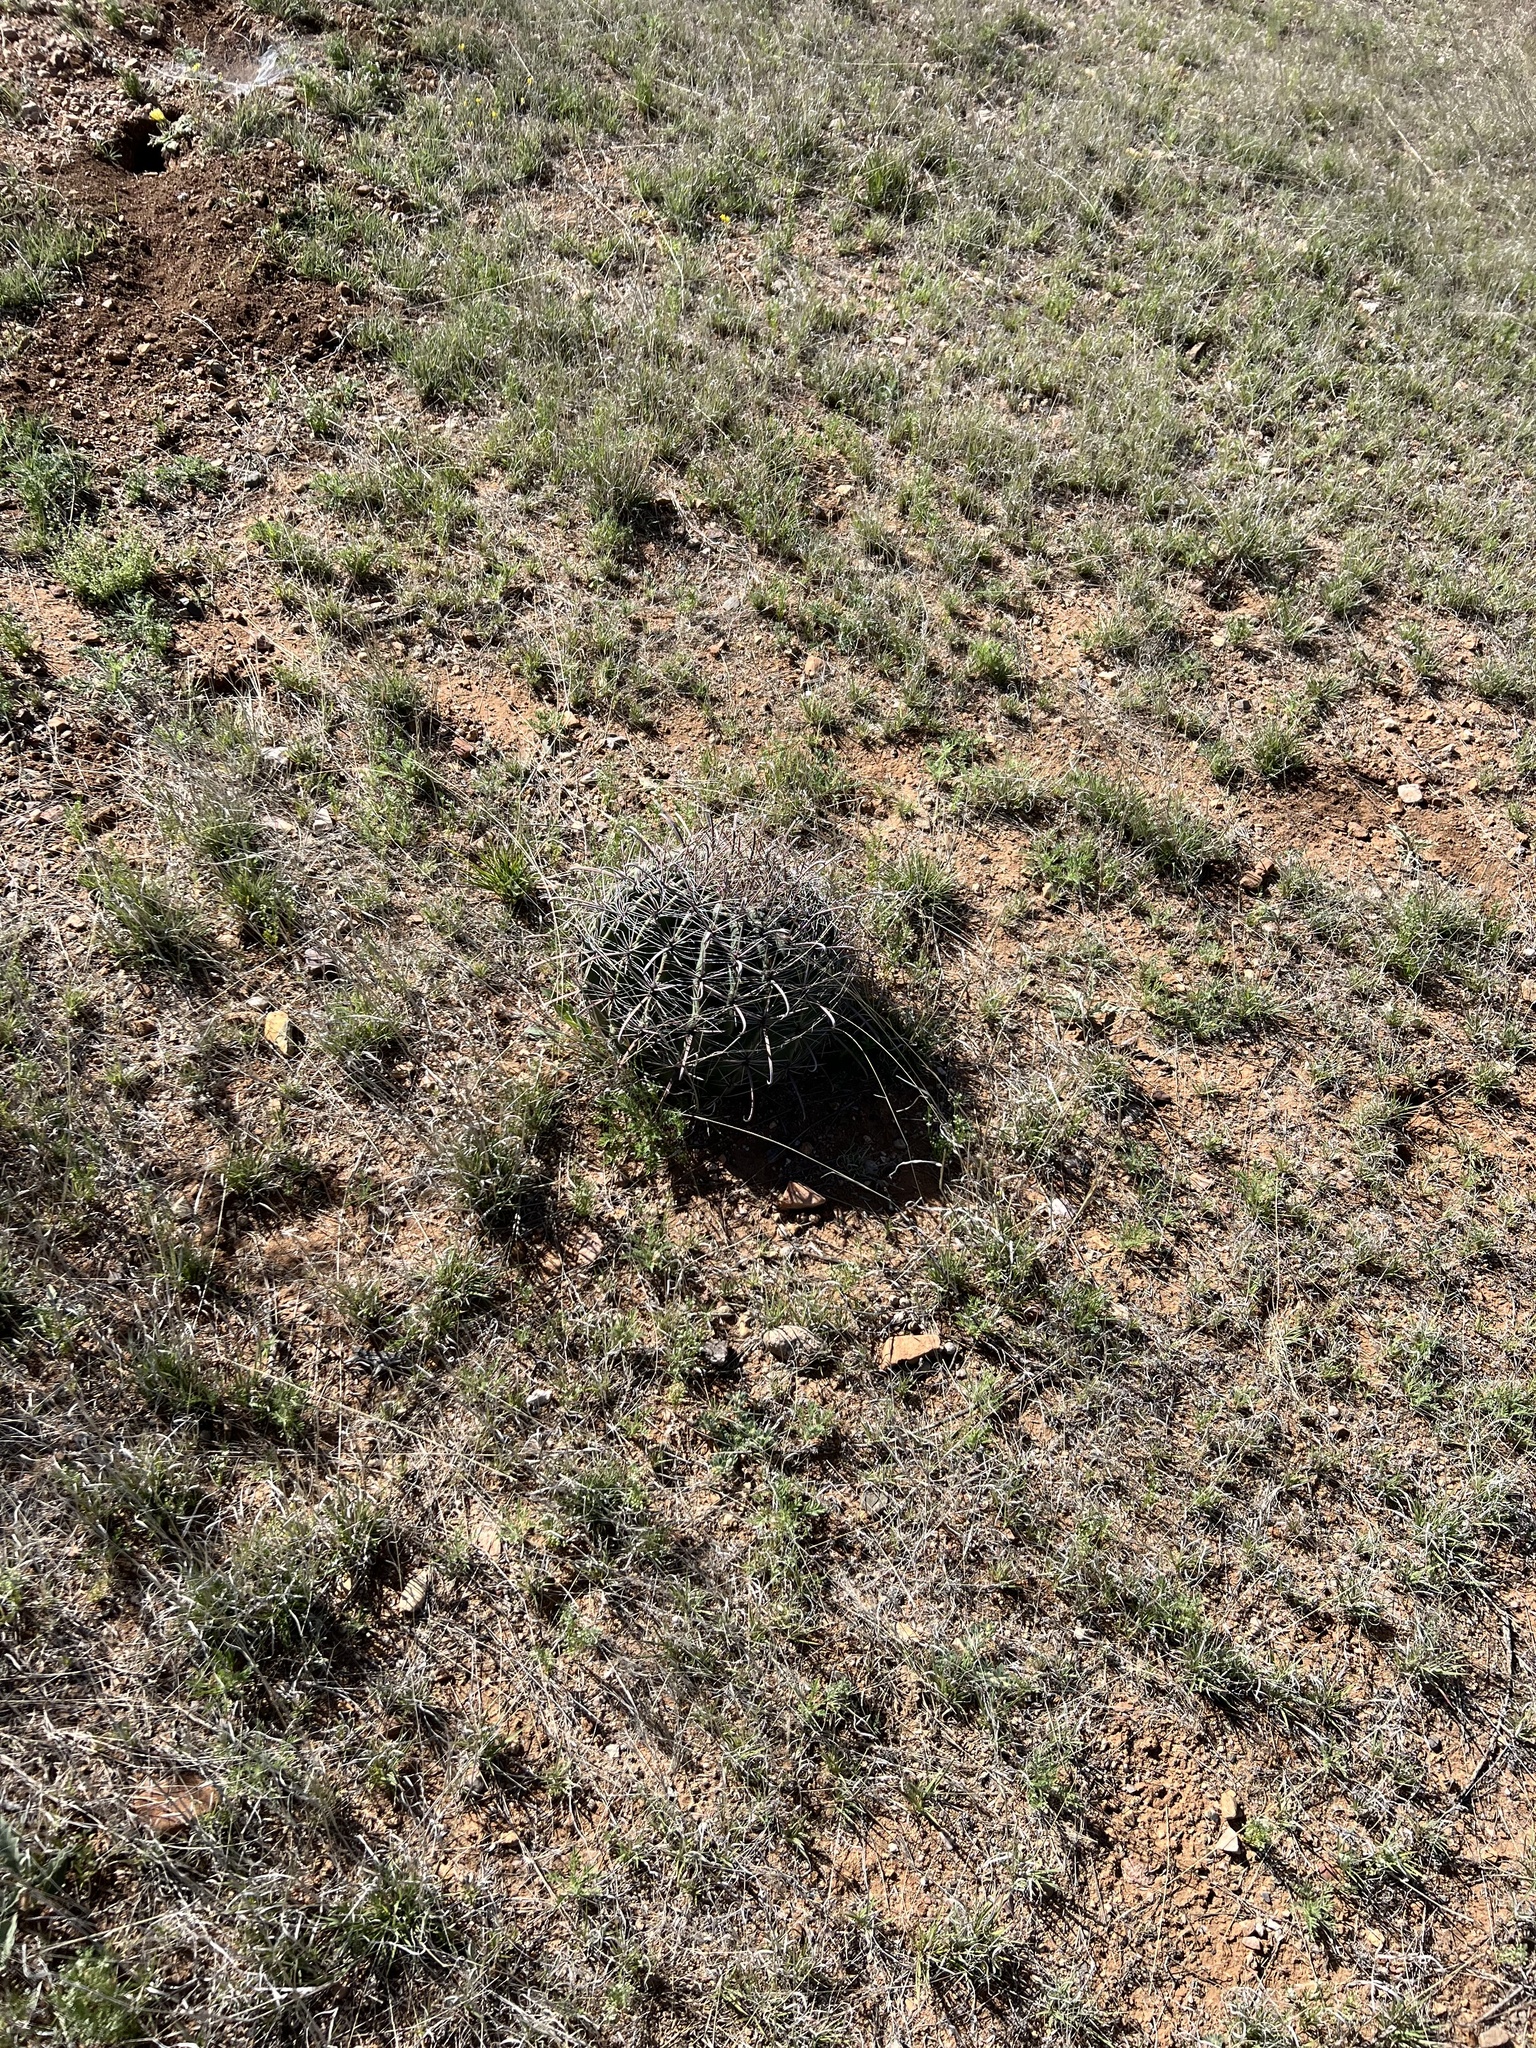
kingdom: Plantae
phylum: Tracheophyta
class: Magnoliopsida
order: Caryophyllales
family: Cactaceae
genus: Ferocactus
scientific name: Ferocactus wislizeni
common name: Candy barrel cactus
